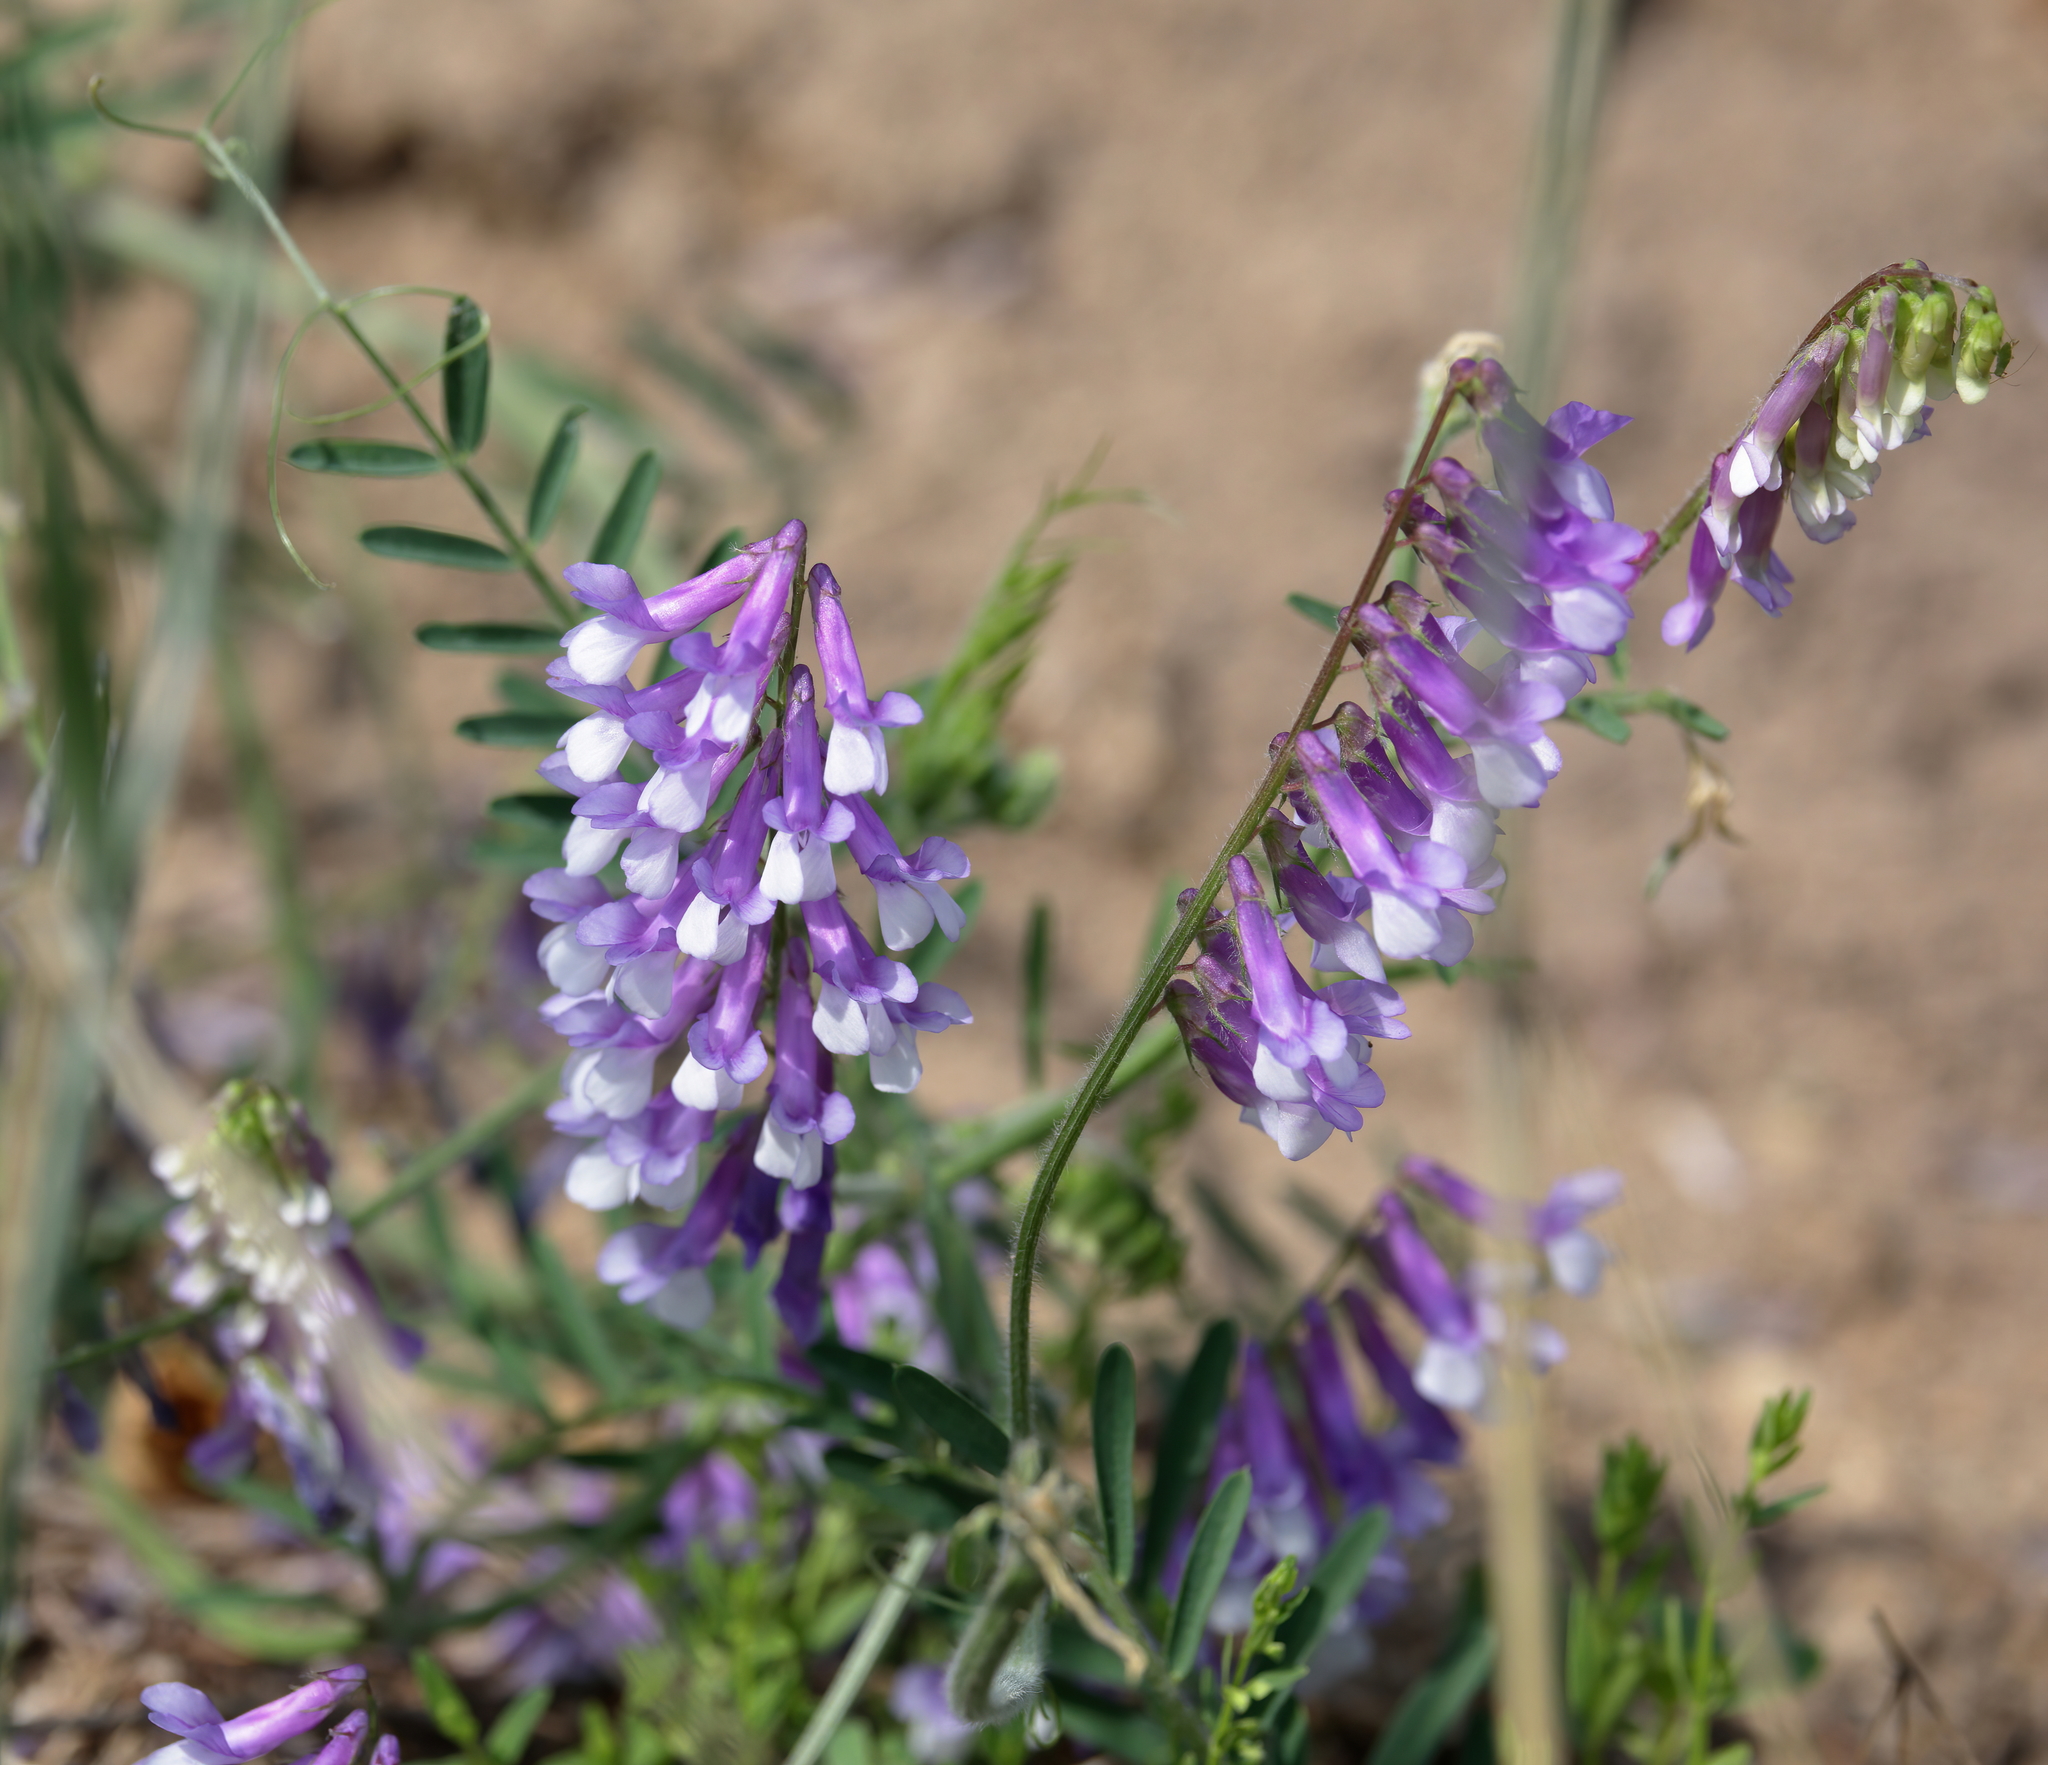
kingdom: Plantae
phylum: Tracheophyta
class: Magnoliopsida
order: Fabales
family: Fabaceae
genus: Vicia
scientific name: Vicia villosa
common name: Fodder vetch
